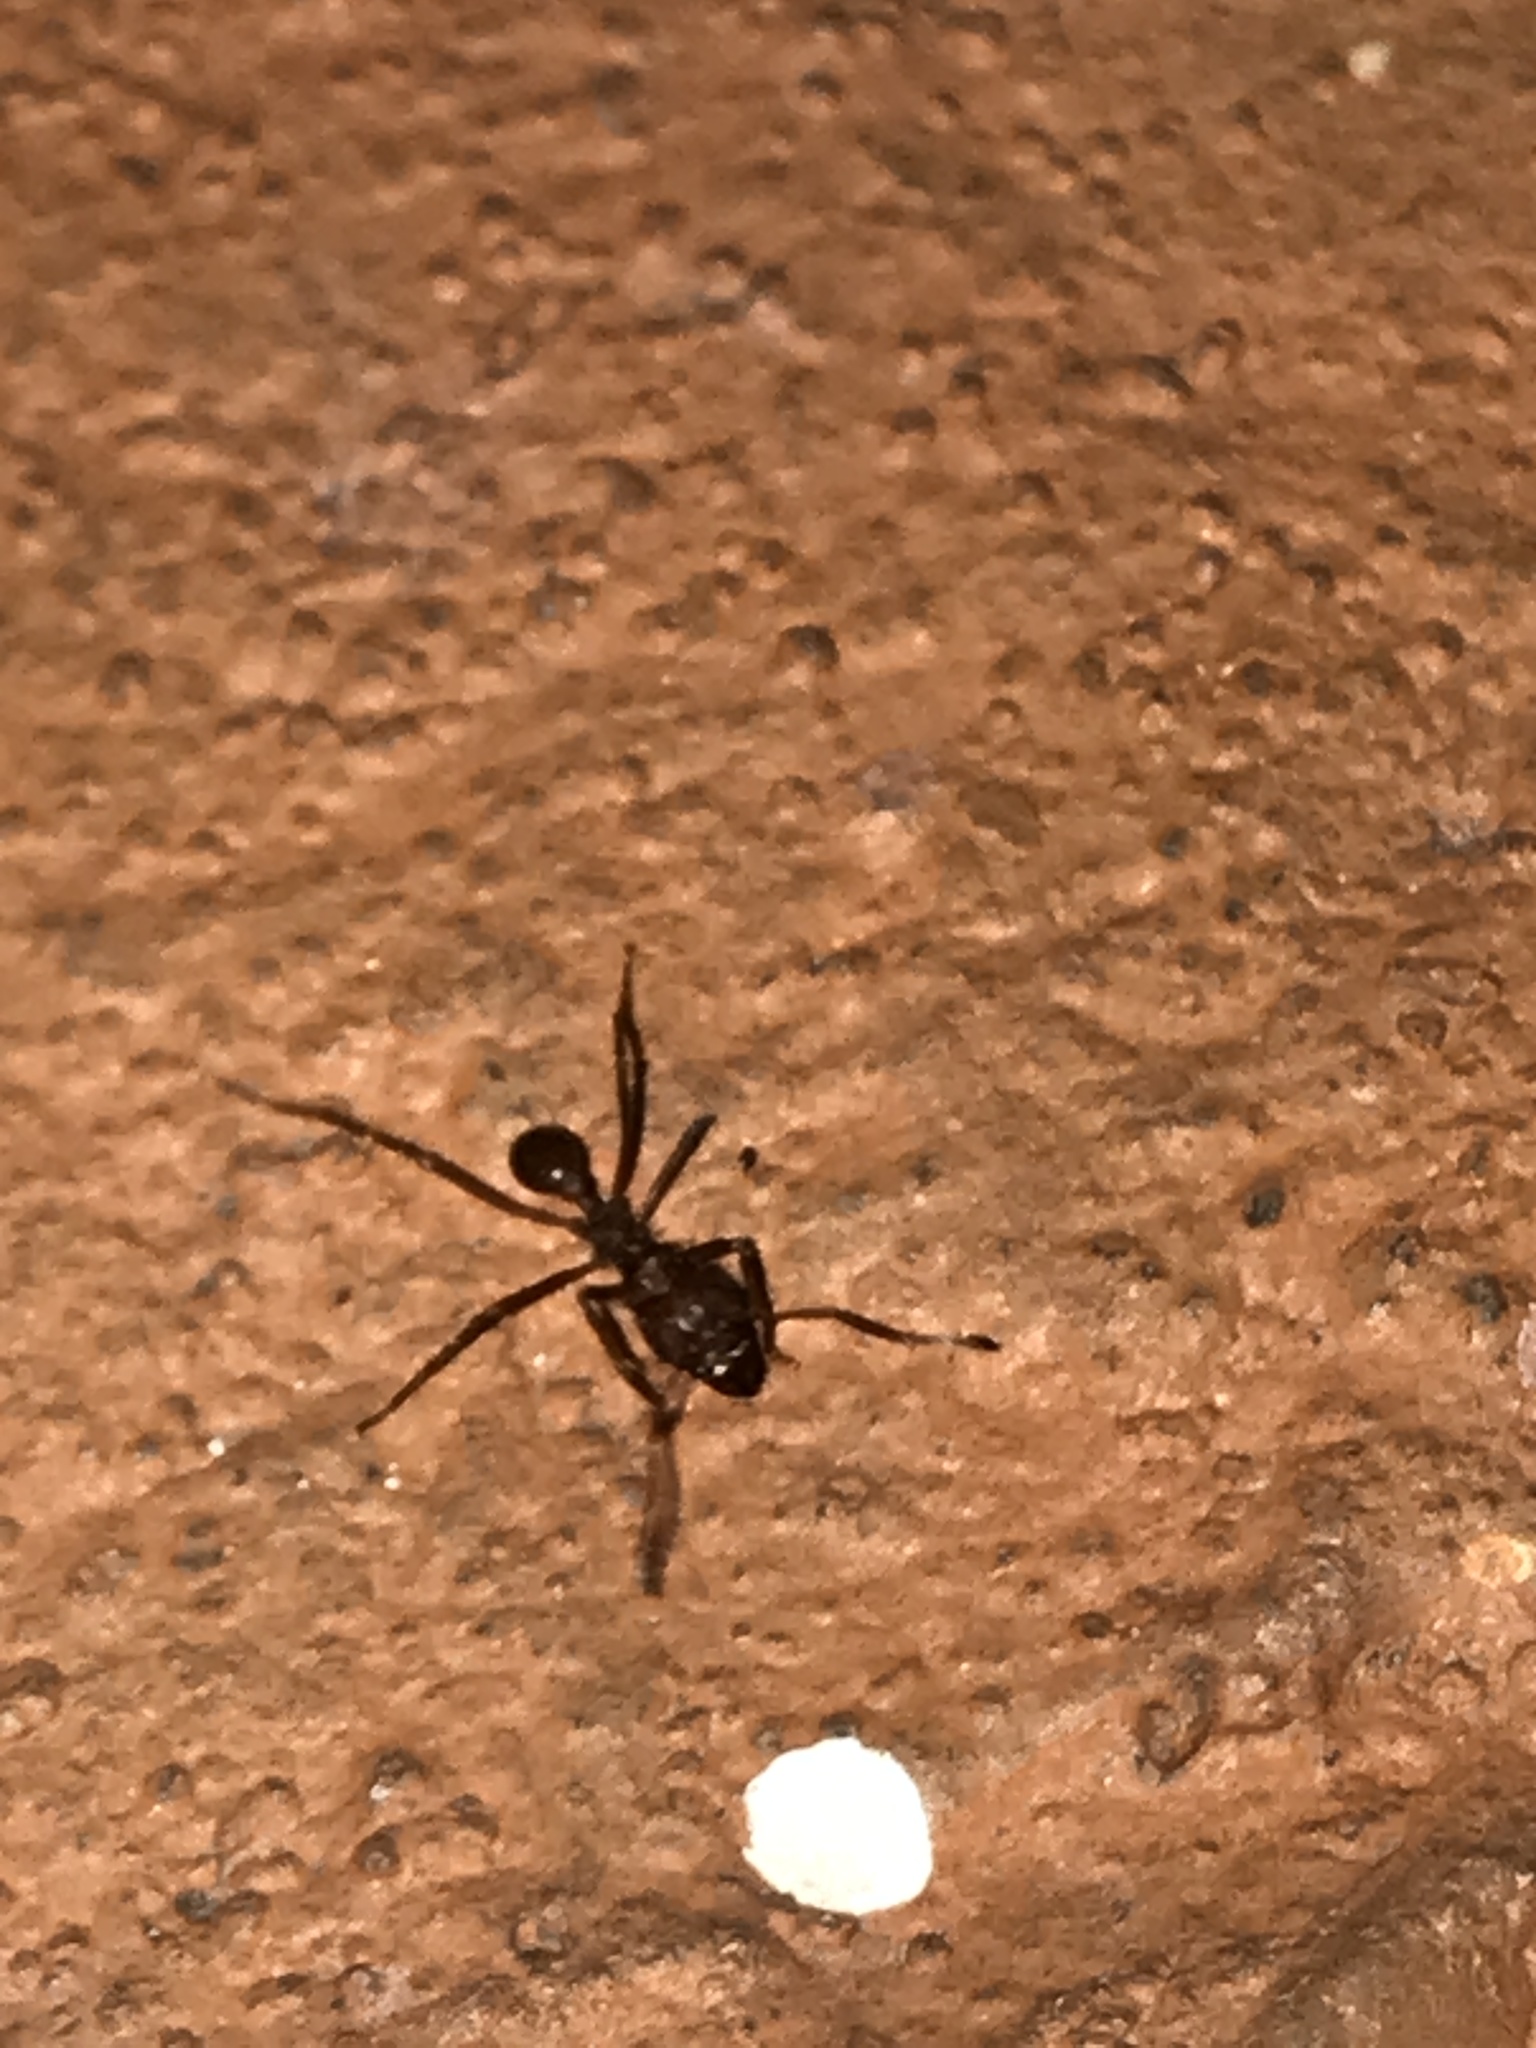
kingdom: Animalia
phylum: Arthropoda
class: Insecta
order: Hymenoptera
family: Formicidae
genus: Atta
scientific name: Atta mexicana
